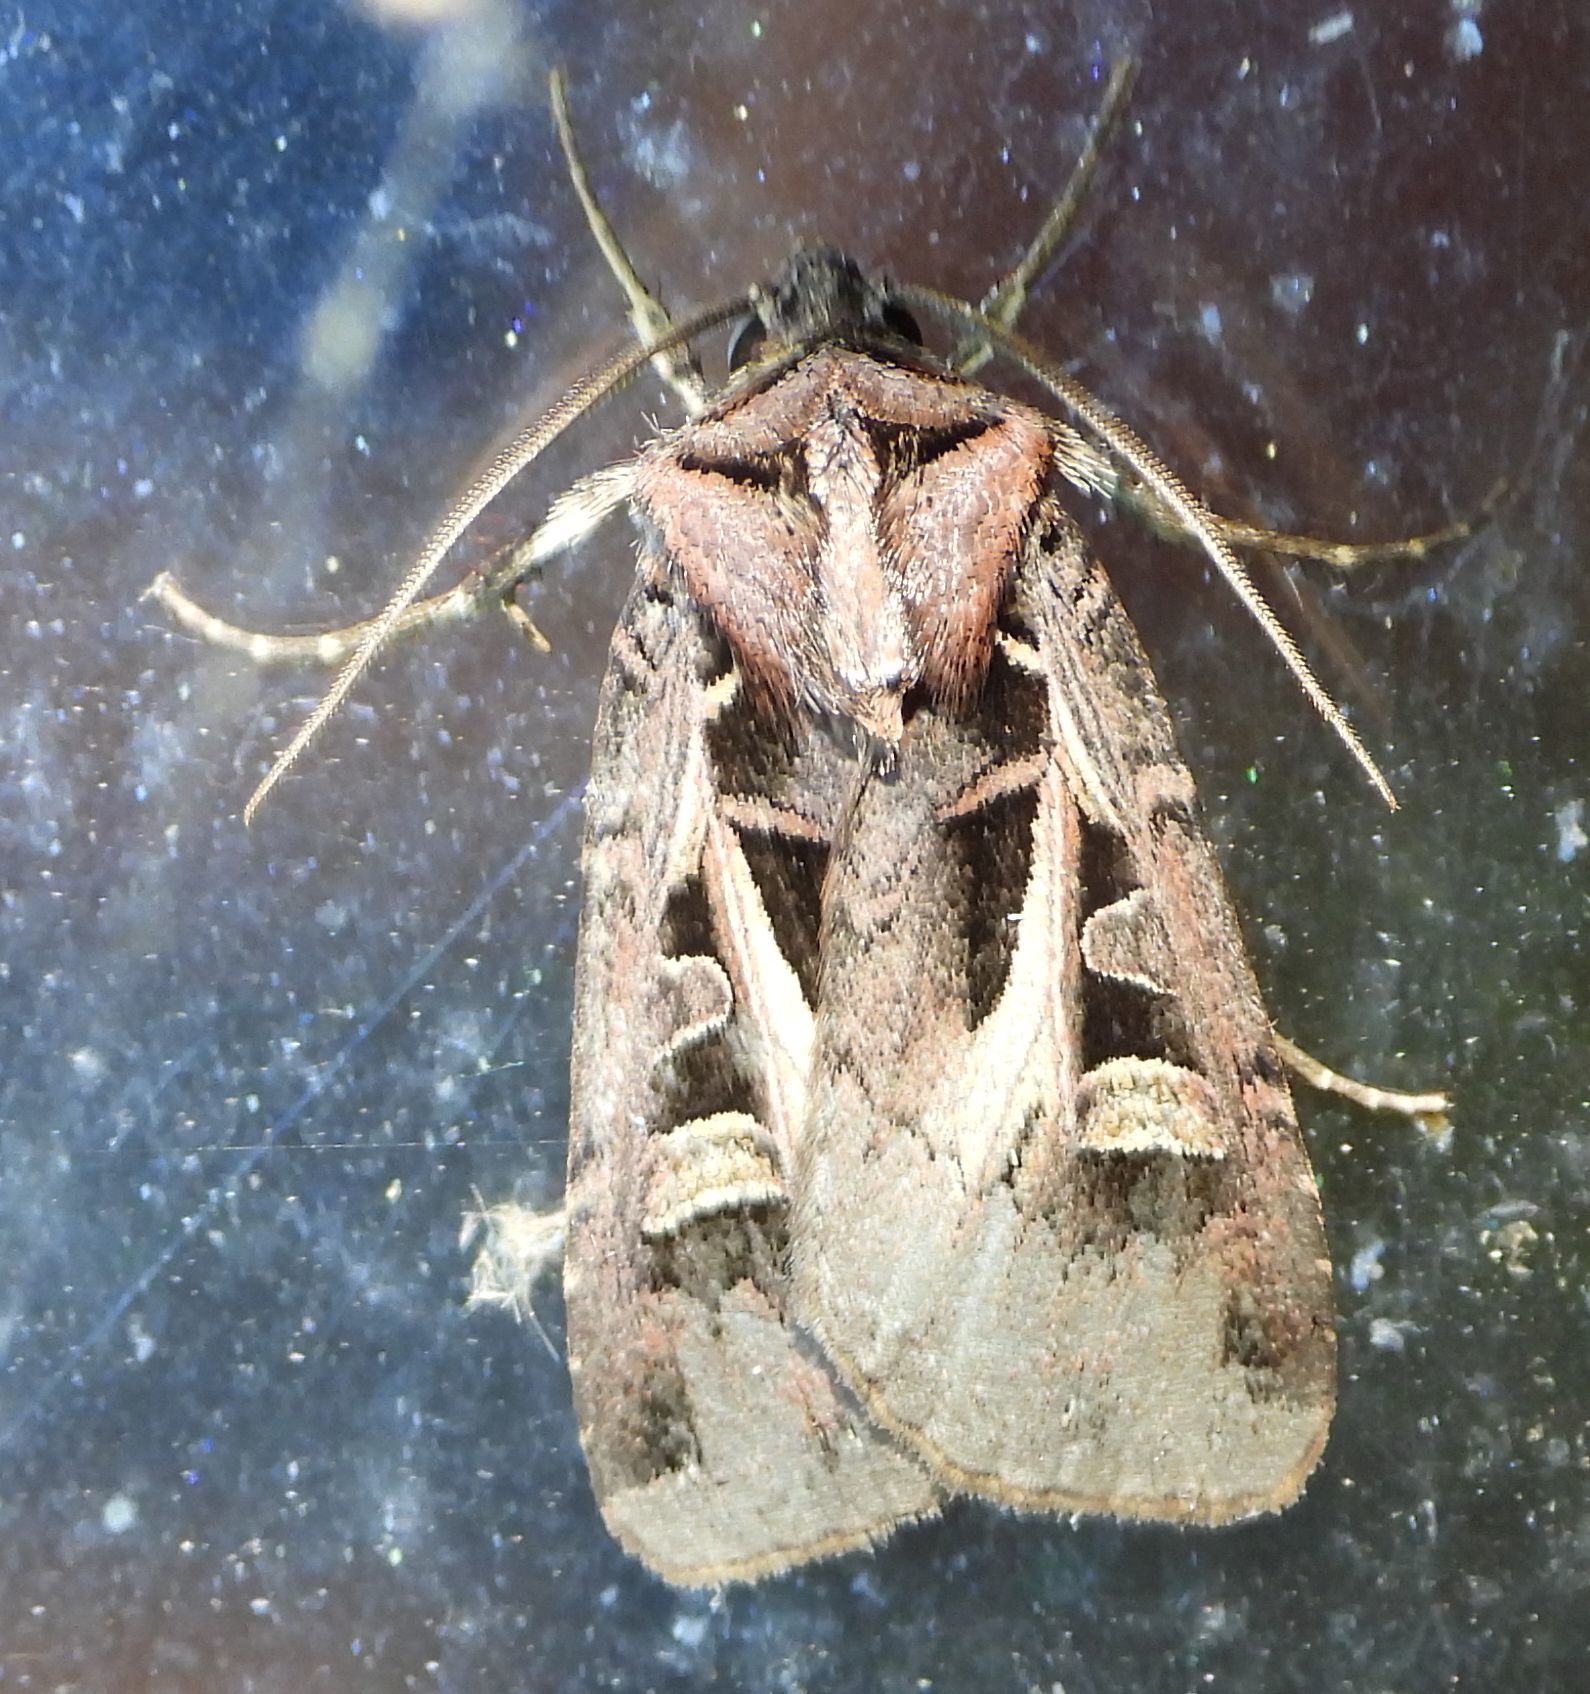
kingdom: Animalia
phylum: Arthropoda
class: Insecta
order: Lepidoptera
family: Noctuidae
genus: Feltia
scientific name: Feltia herilis
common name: Master's dart
